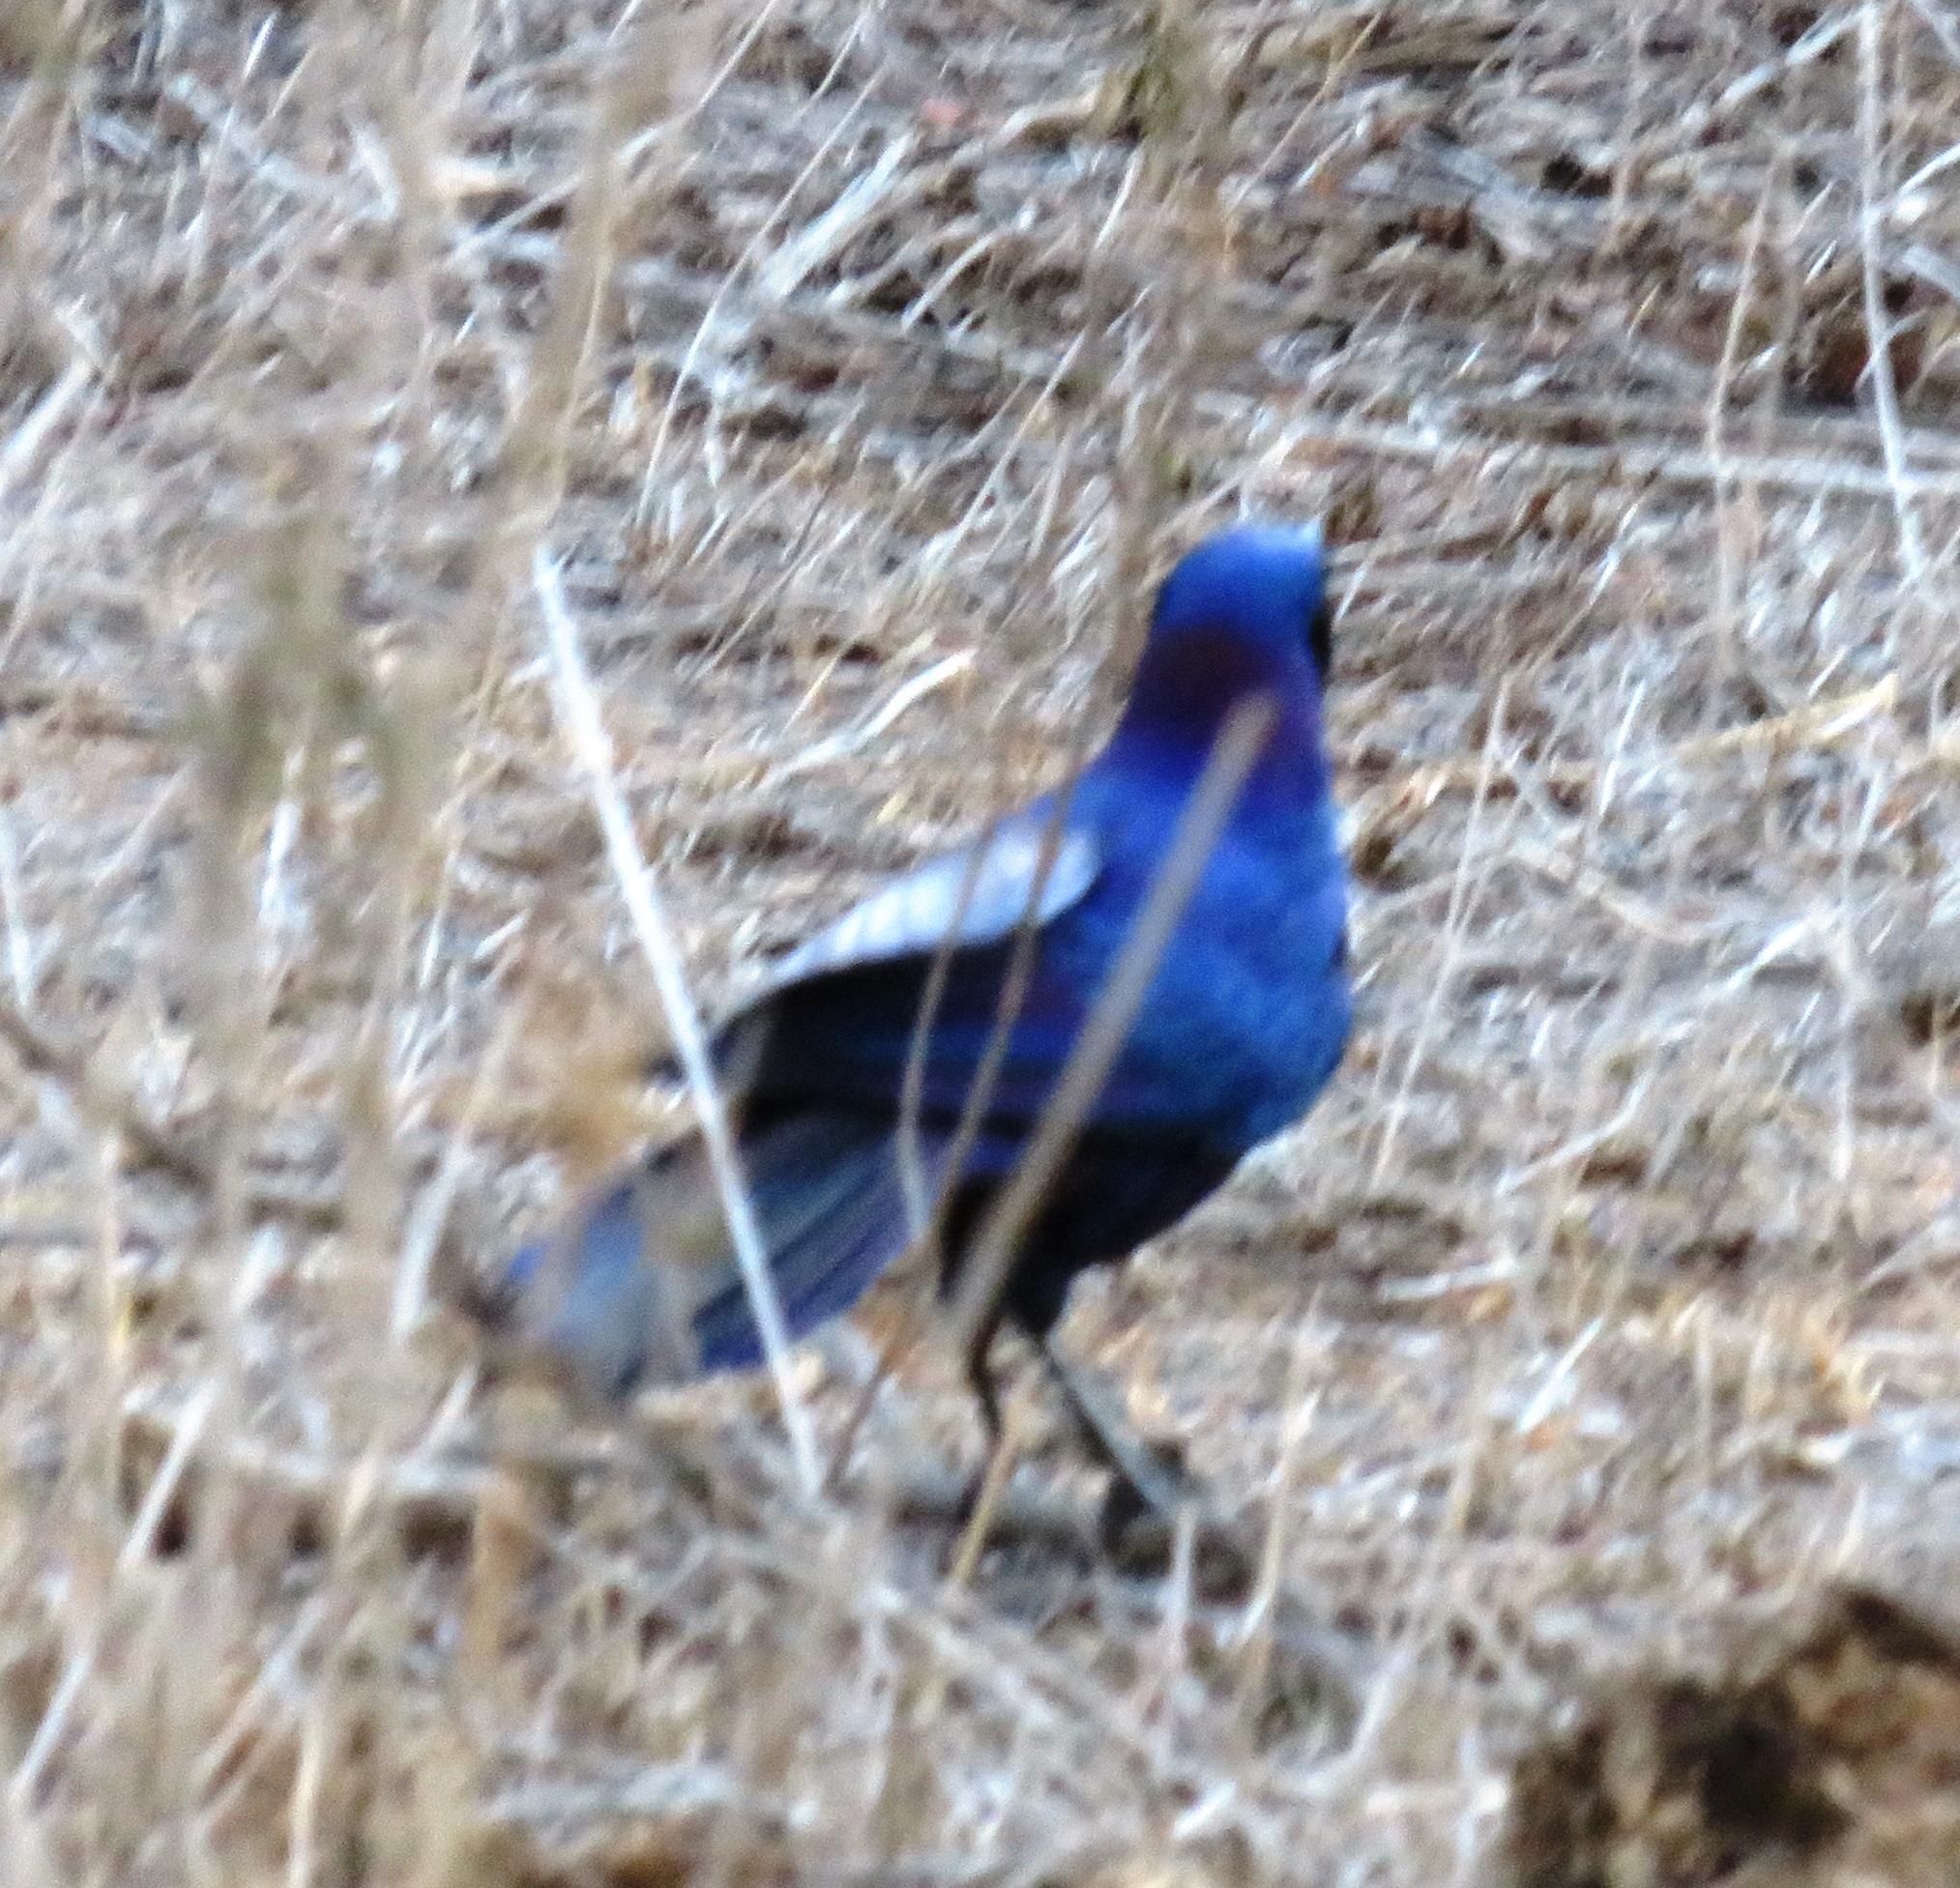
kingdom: Animalia
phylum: Chordata
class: Aves
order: Passeriformes
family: Sturnidae
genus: Lamprotornis
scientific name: Lamprotornis australis
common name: Burchell's starling
